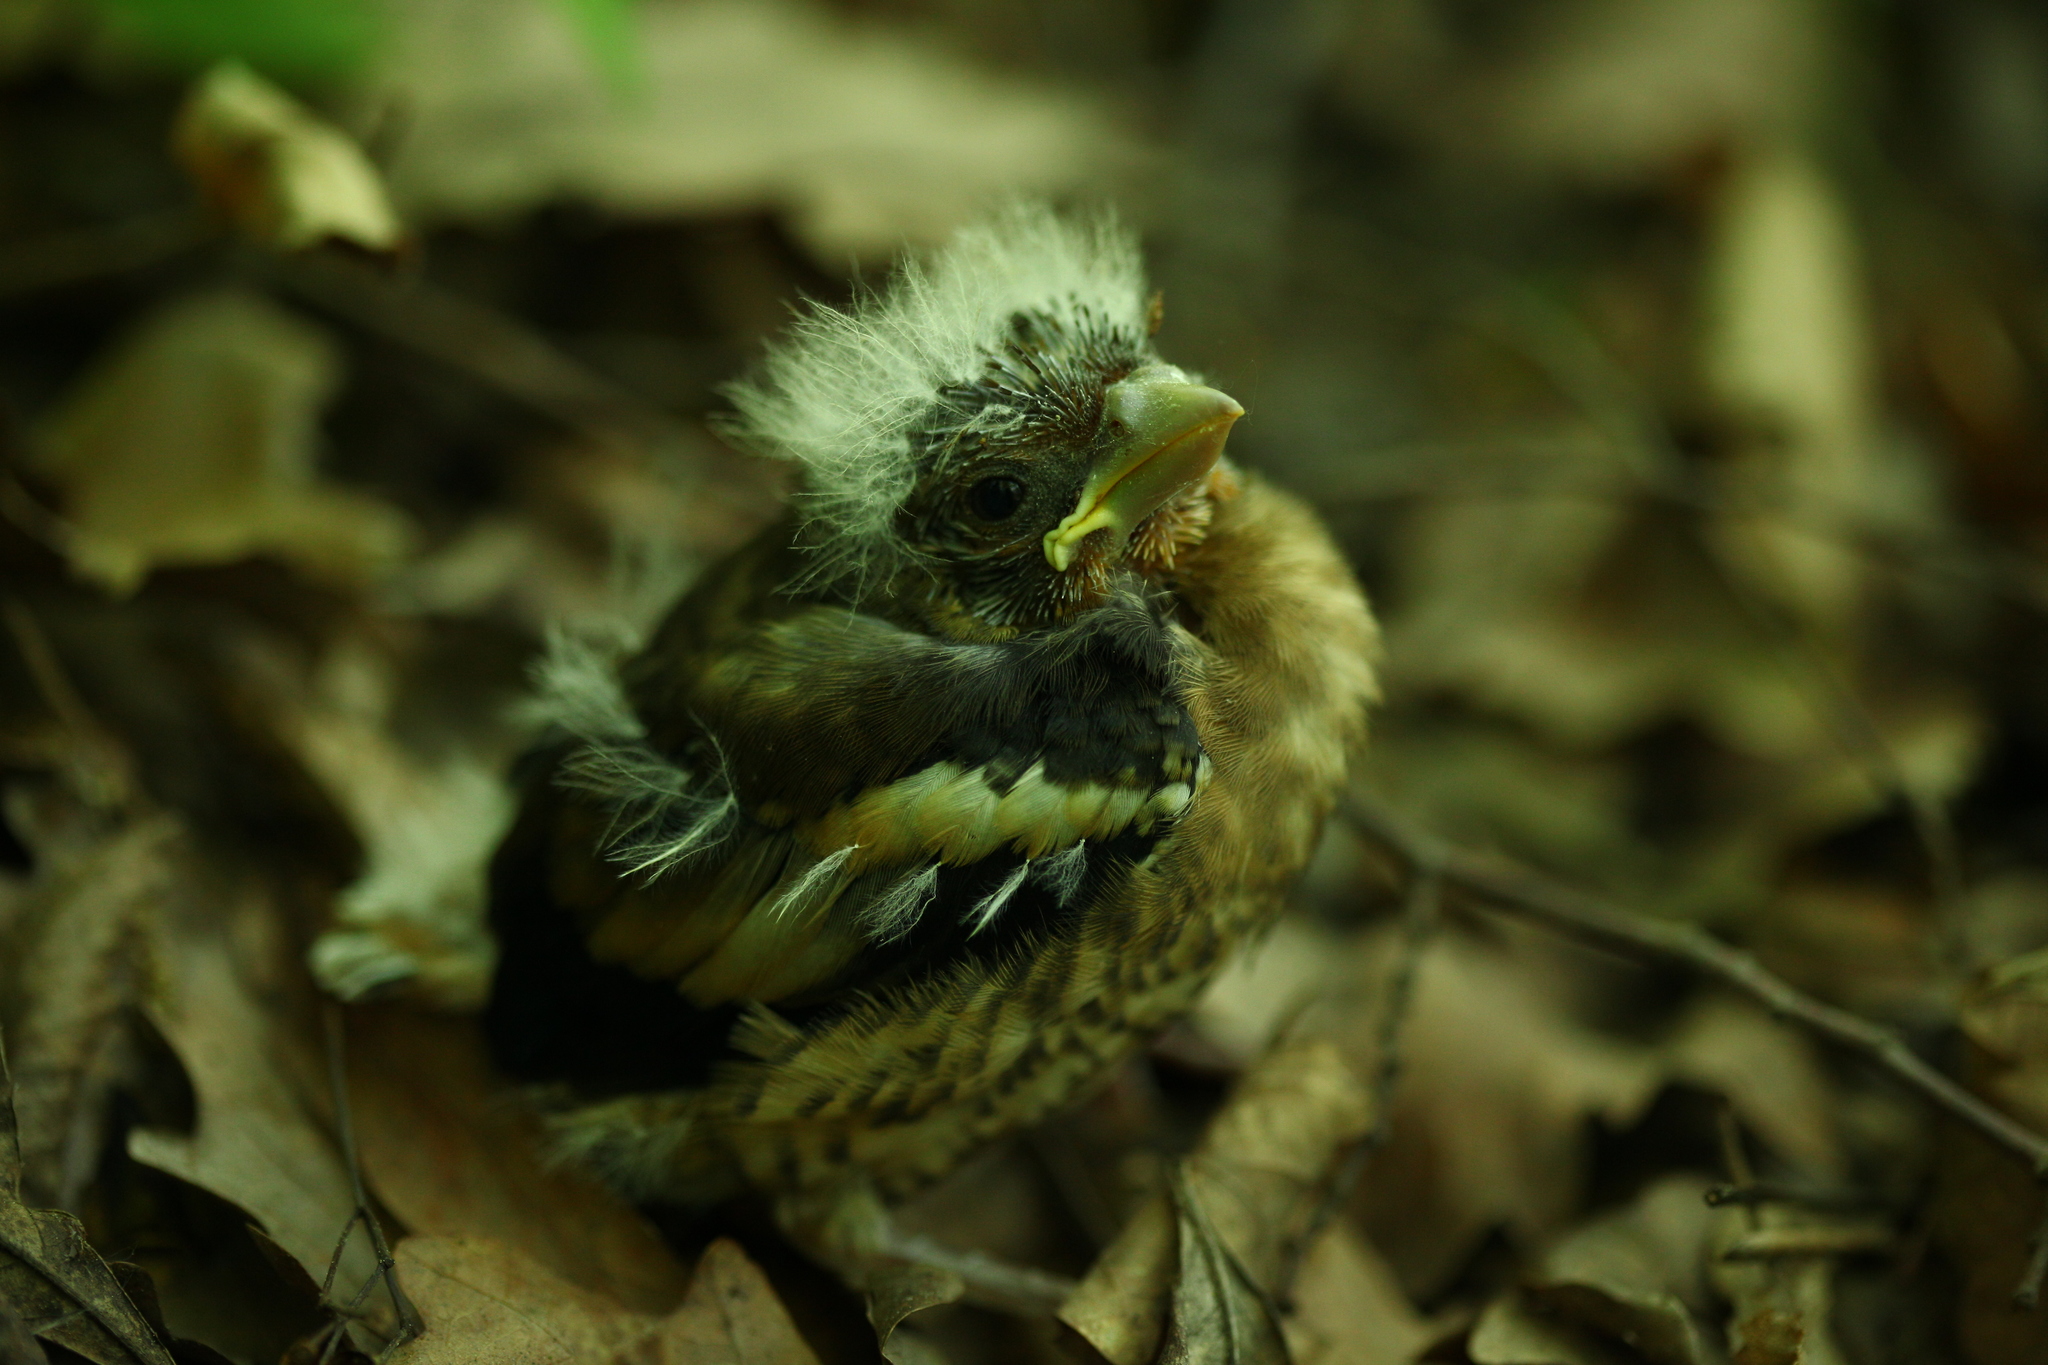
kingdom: Animalia
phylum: Chordata
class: Aves
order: Passeriformes
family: Fringillidae
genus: Coccothraustes
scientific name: Coccothraustes coccothraustes
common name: Hawfinch
